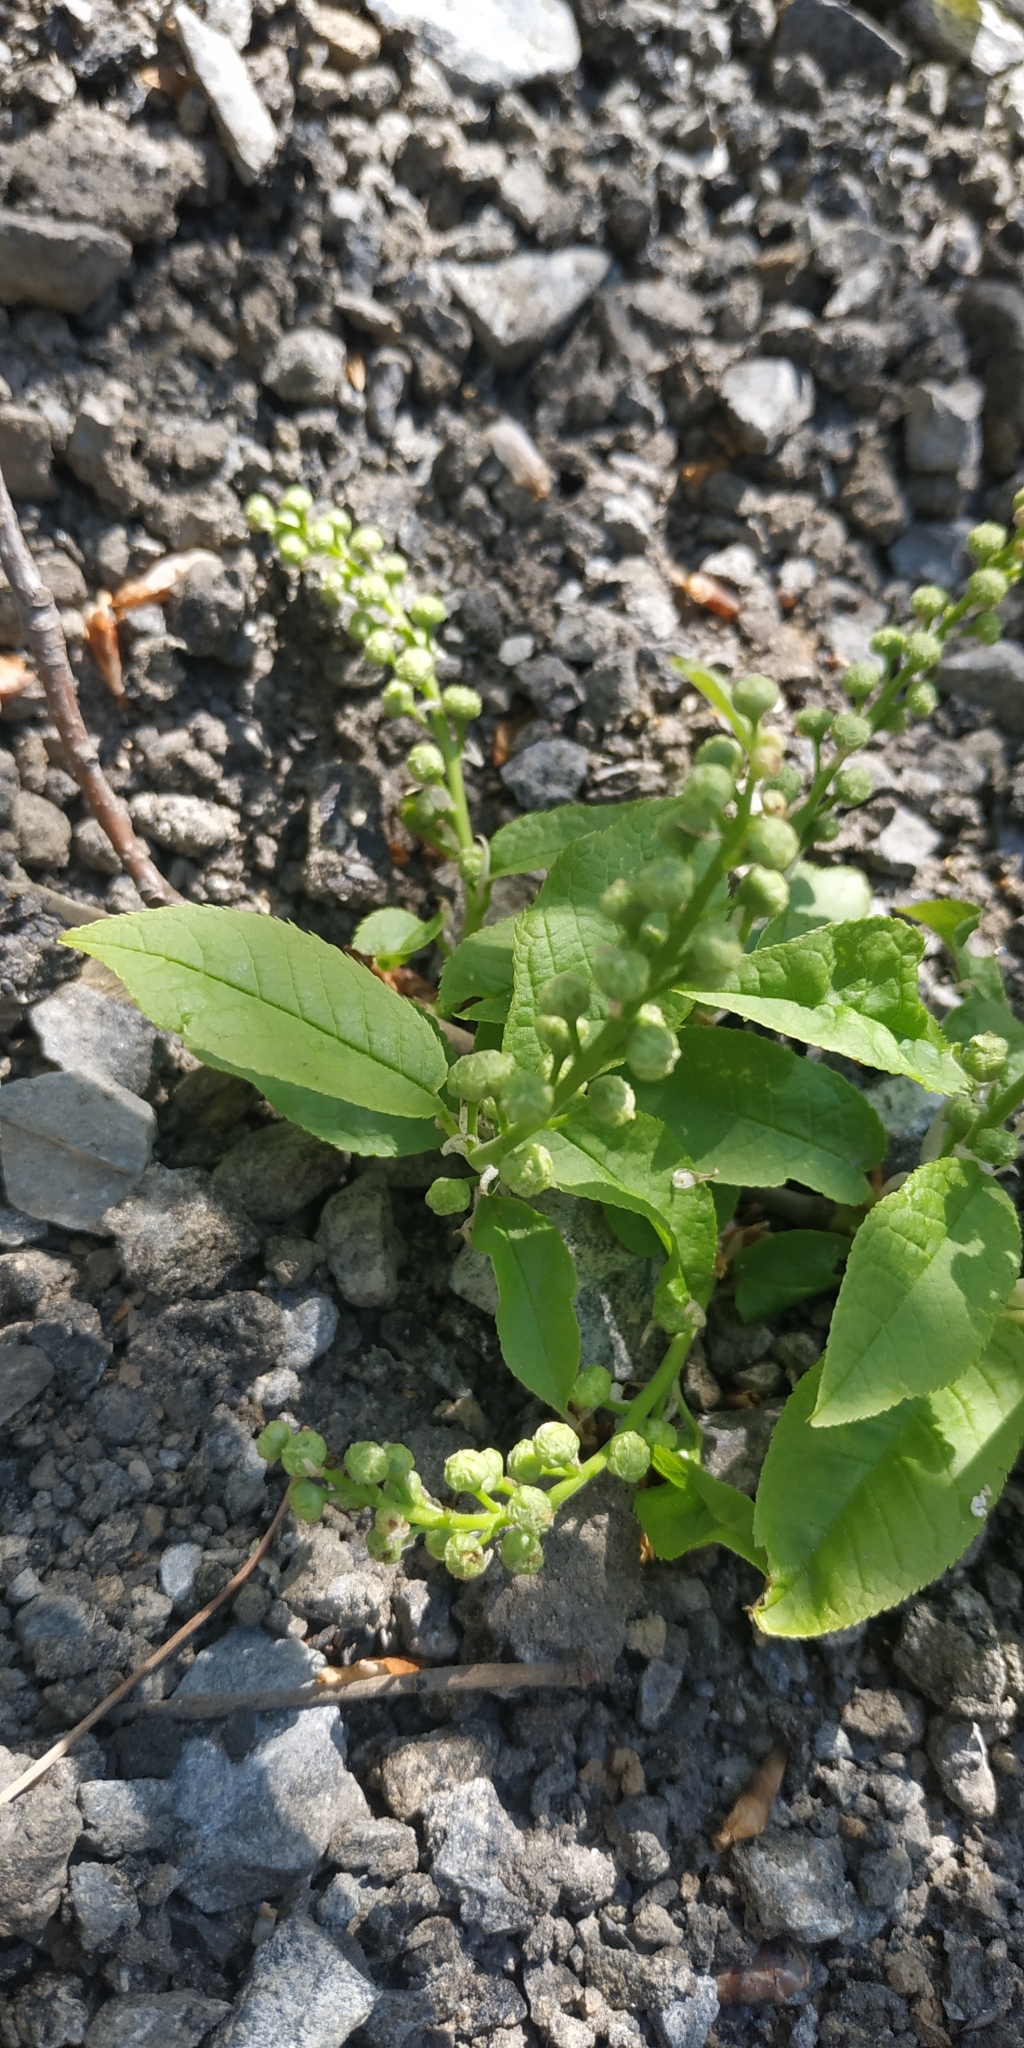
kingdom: Plantae
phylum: Tracheophyta
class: Magnoliopsida
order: Rosales
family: Rosaceae
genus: Prunus
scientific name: Prunus padus
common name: Bird cherry
